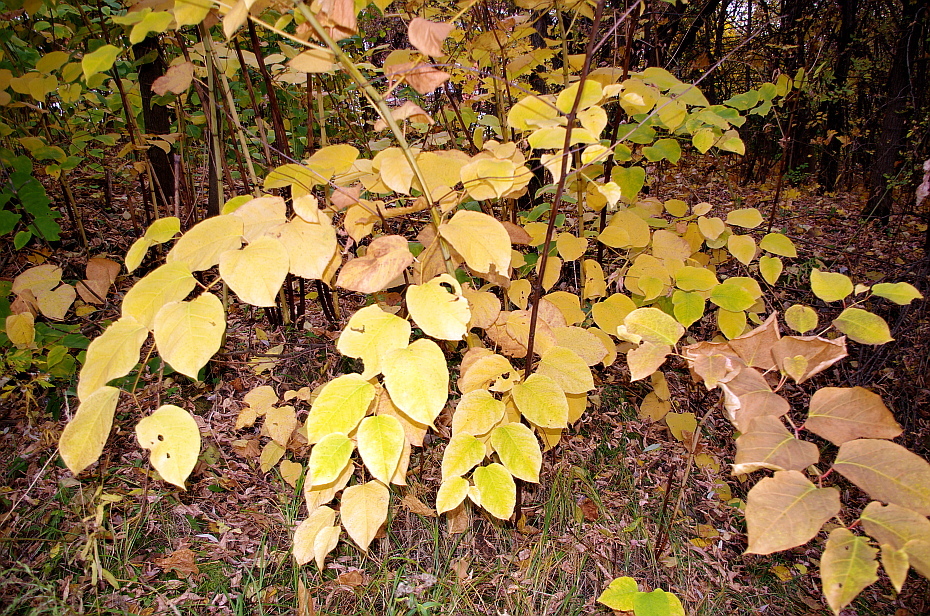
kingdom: Plantae
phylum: Tracheophyta
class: Magnoliopsida
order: Caryophyllales
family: Polygonaceae
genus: Reynoutria
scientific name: Reynoutria bohemica
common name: Bohemian knotweed
